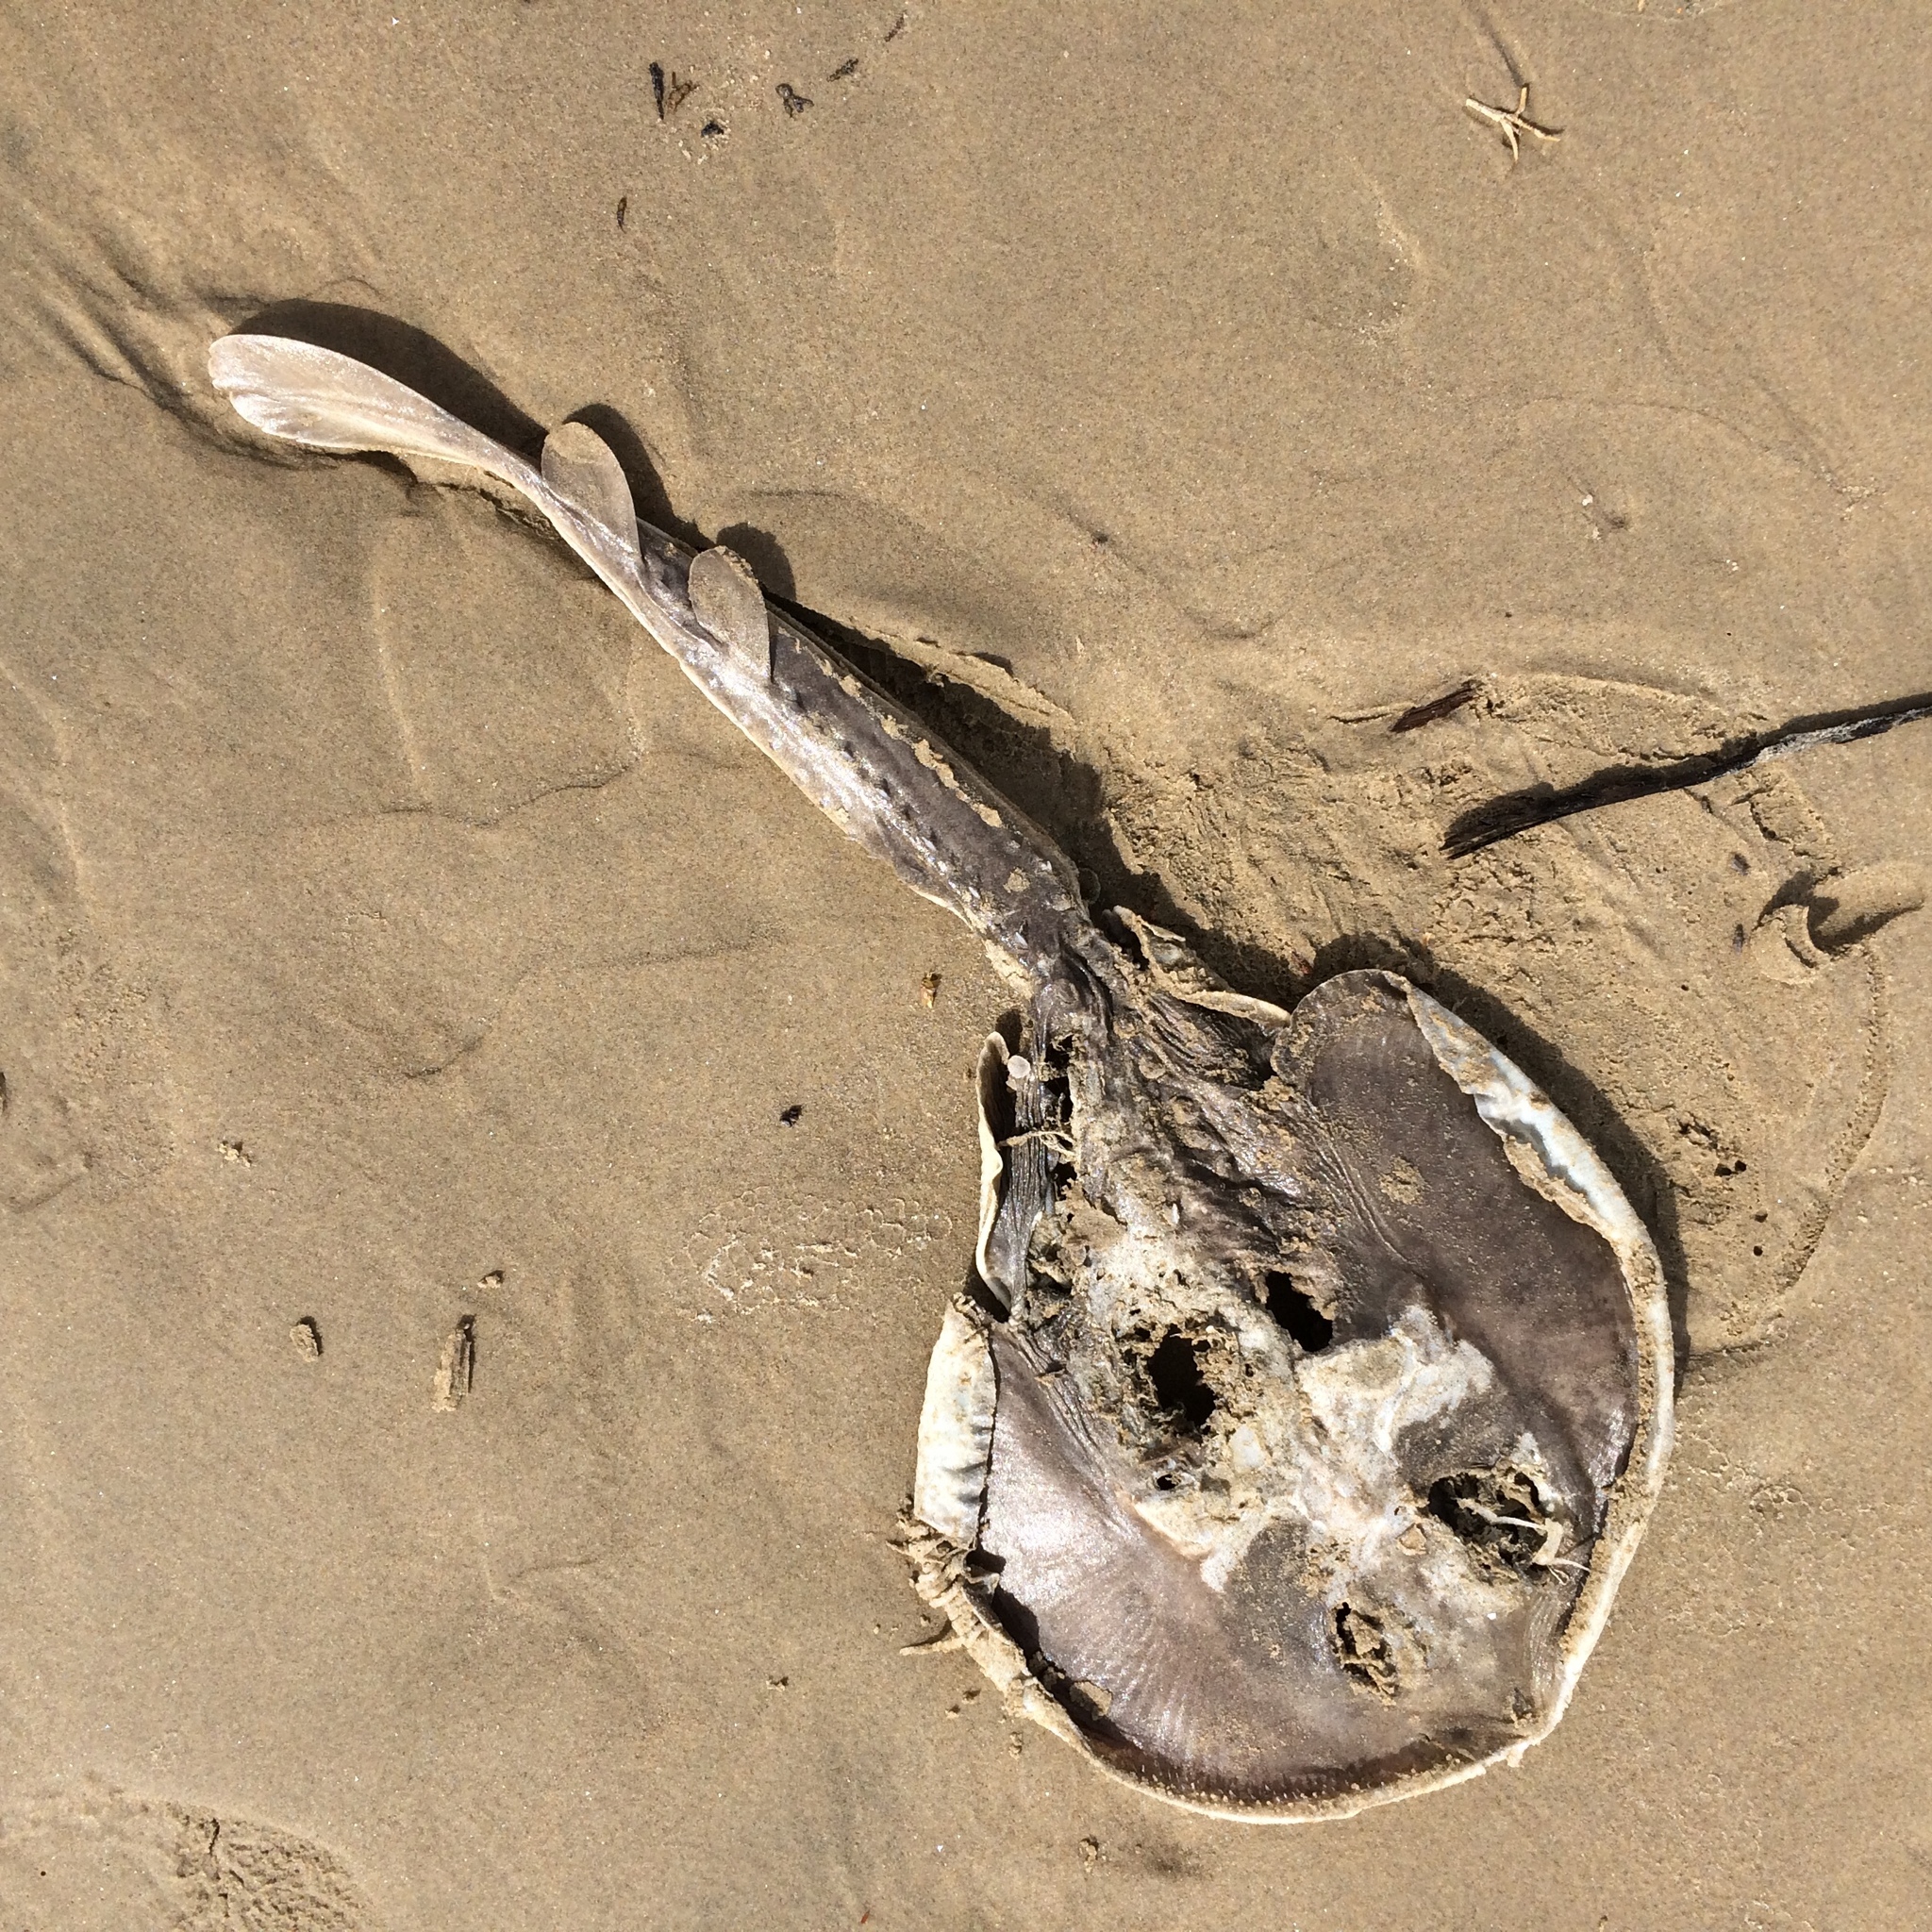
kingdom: Animalia
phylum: Chordata
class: Elasmobranchii
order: Rhinopristiformes
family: Rhinobatidae
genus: Platyrhinoidis
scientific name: Platyrhinoidis triseriata
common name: Thornback
